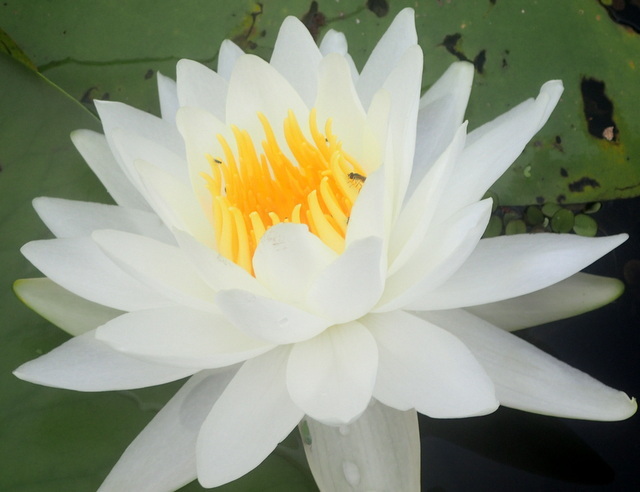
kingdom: Plantae
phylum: Tracheophyta
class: Magnoliopsida
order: Nymphaeales
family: Nymphaeaceae
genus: Nymphaea
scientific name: Nymphaea odorata
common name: Fragrant water-lily
